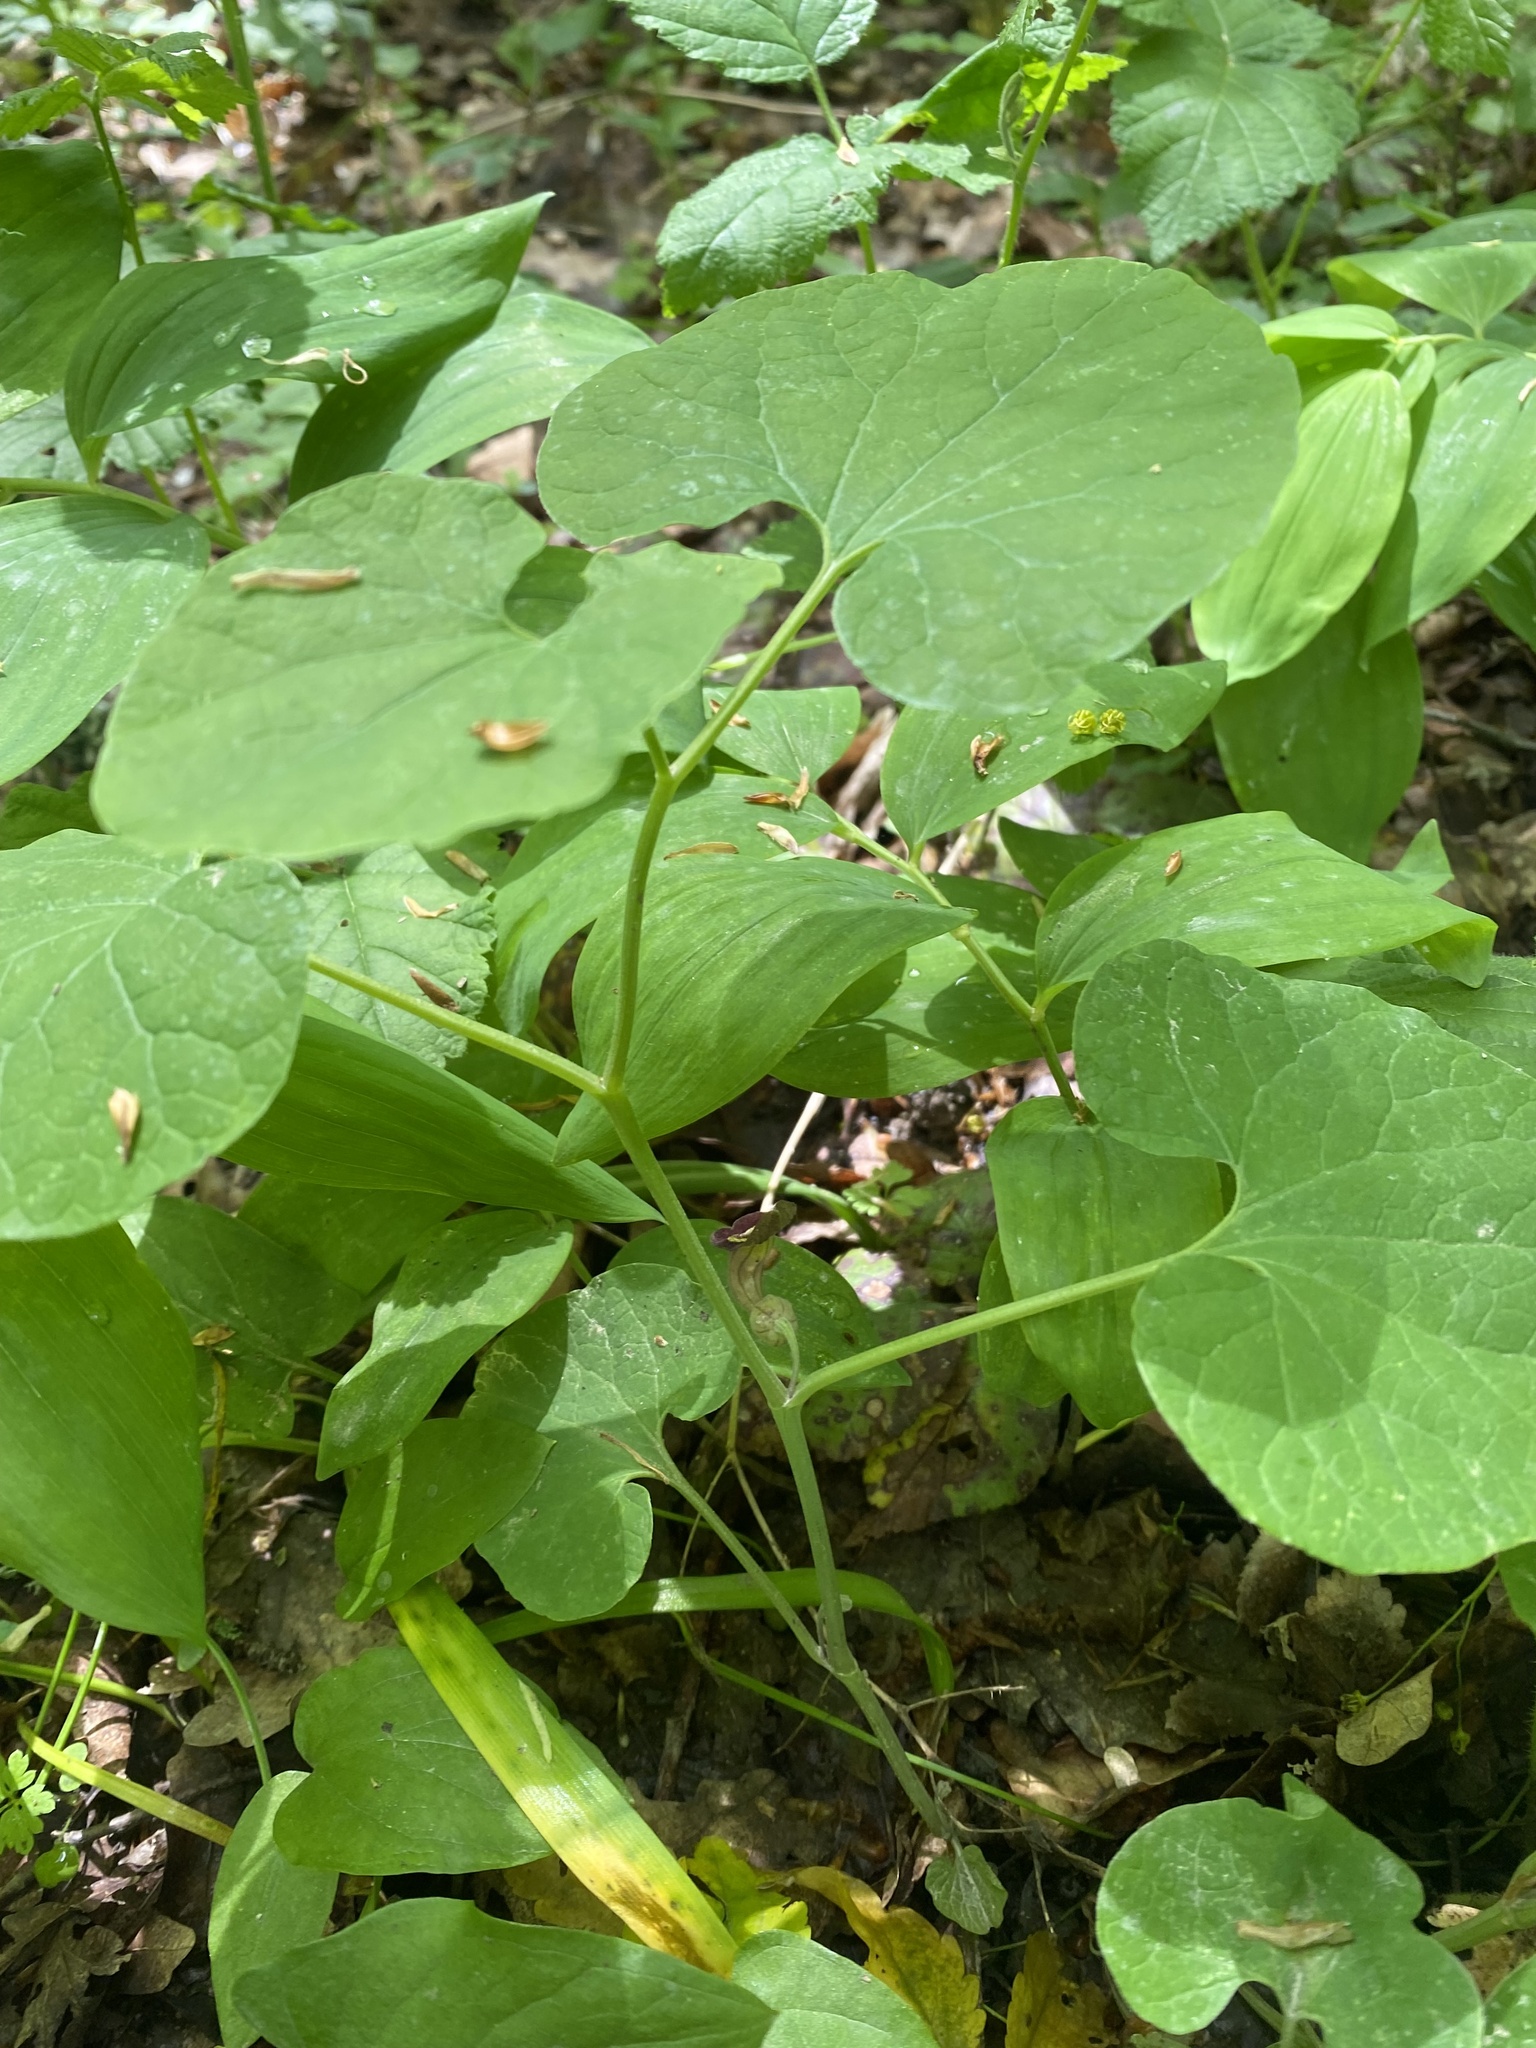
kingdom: Plantae
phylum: Tracheophyta
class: Magnoliopsida
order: Piperales
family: Aristolochiaceae
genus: Aristolochia
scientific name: Aristolochia steupii
